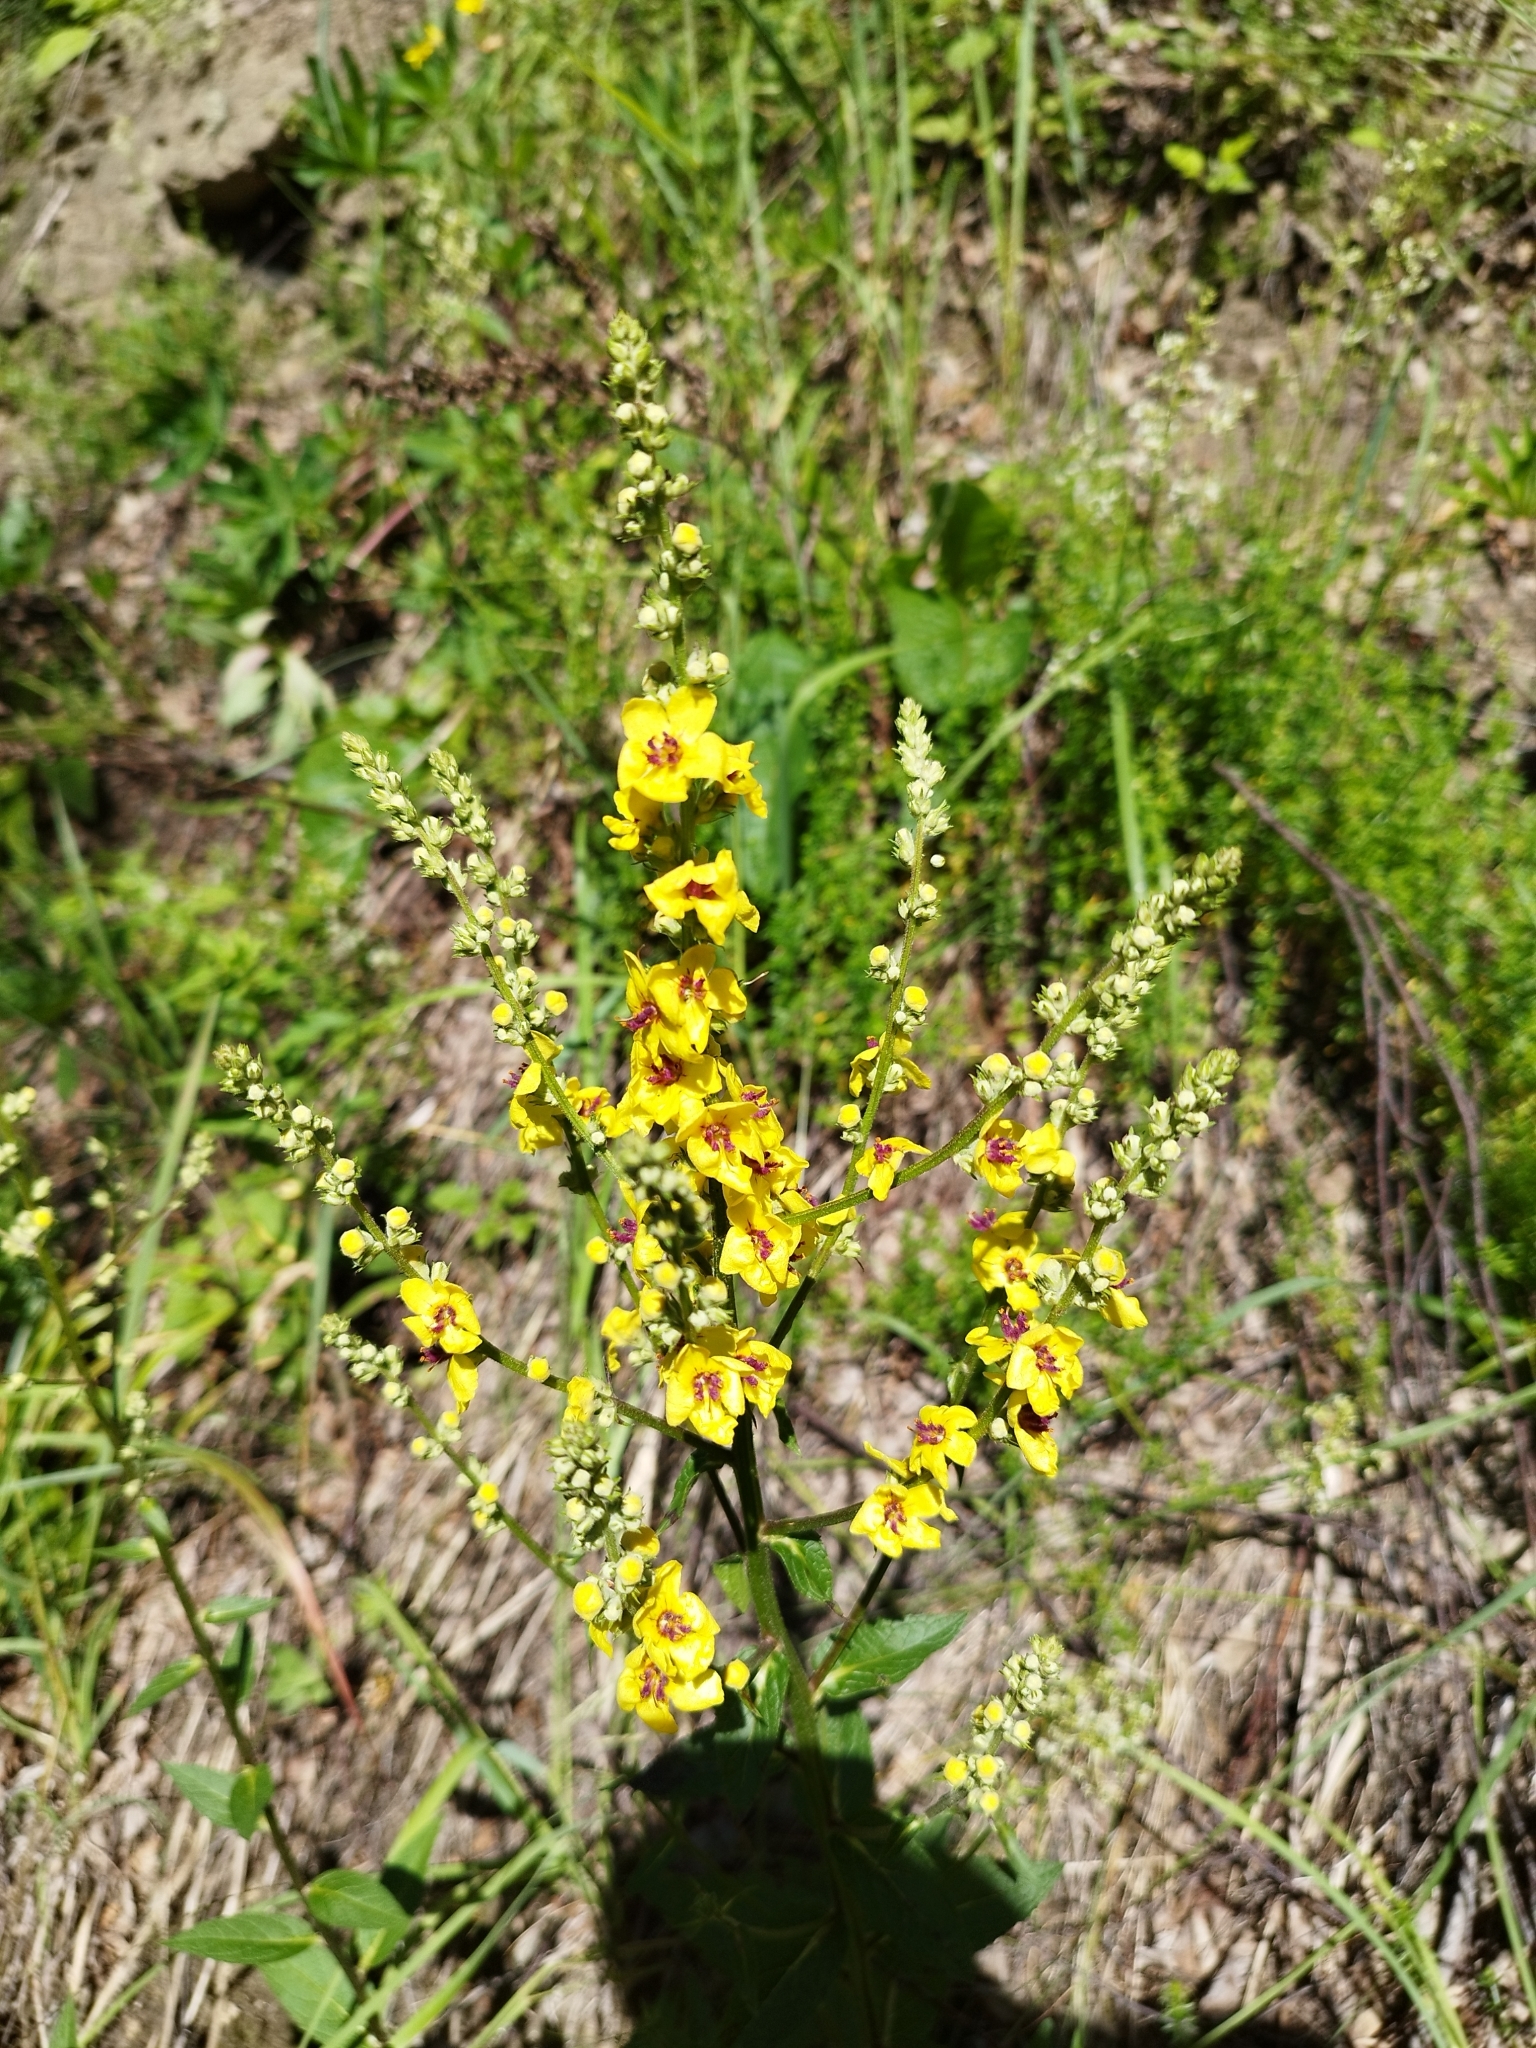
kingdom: Plantae
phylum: Tracheophyta
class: Magnoliopsida
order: Lamiales
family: Scrophulariaceae
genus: Verbascum
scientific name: Verbascum chaixii
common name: Nettle-leaved mullein
